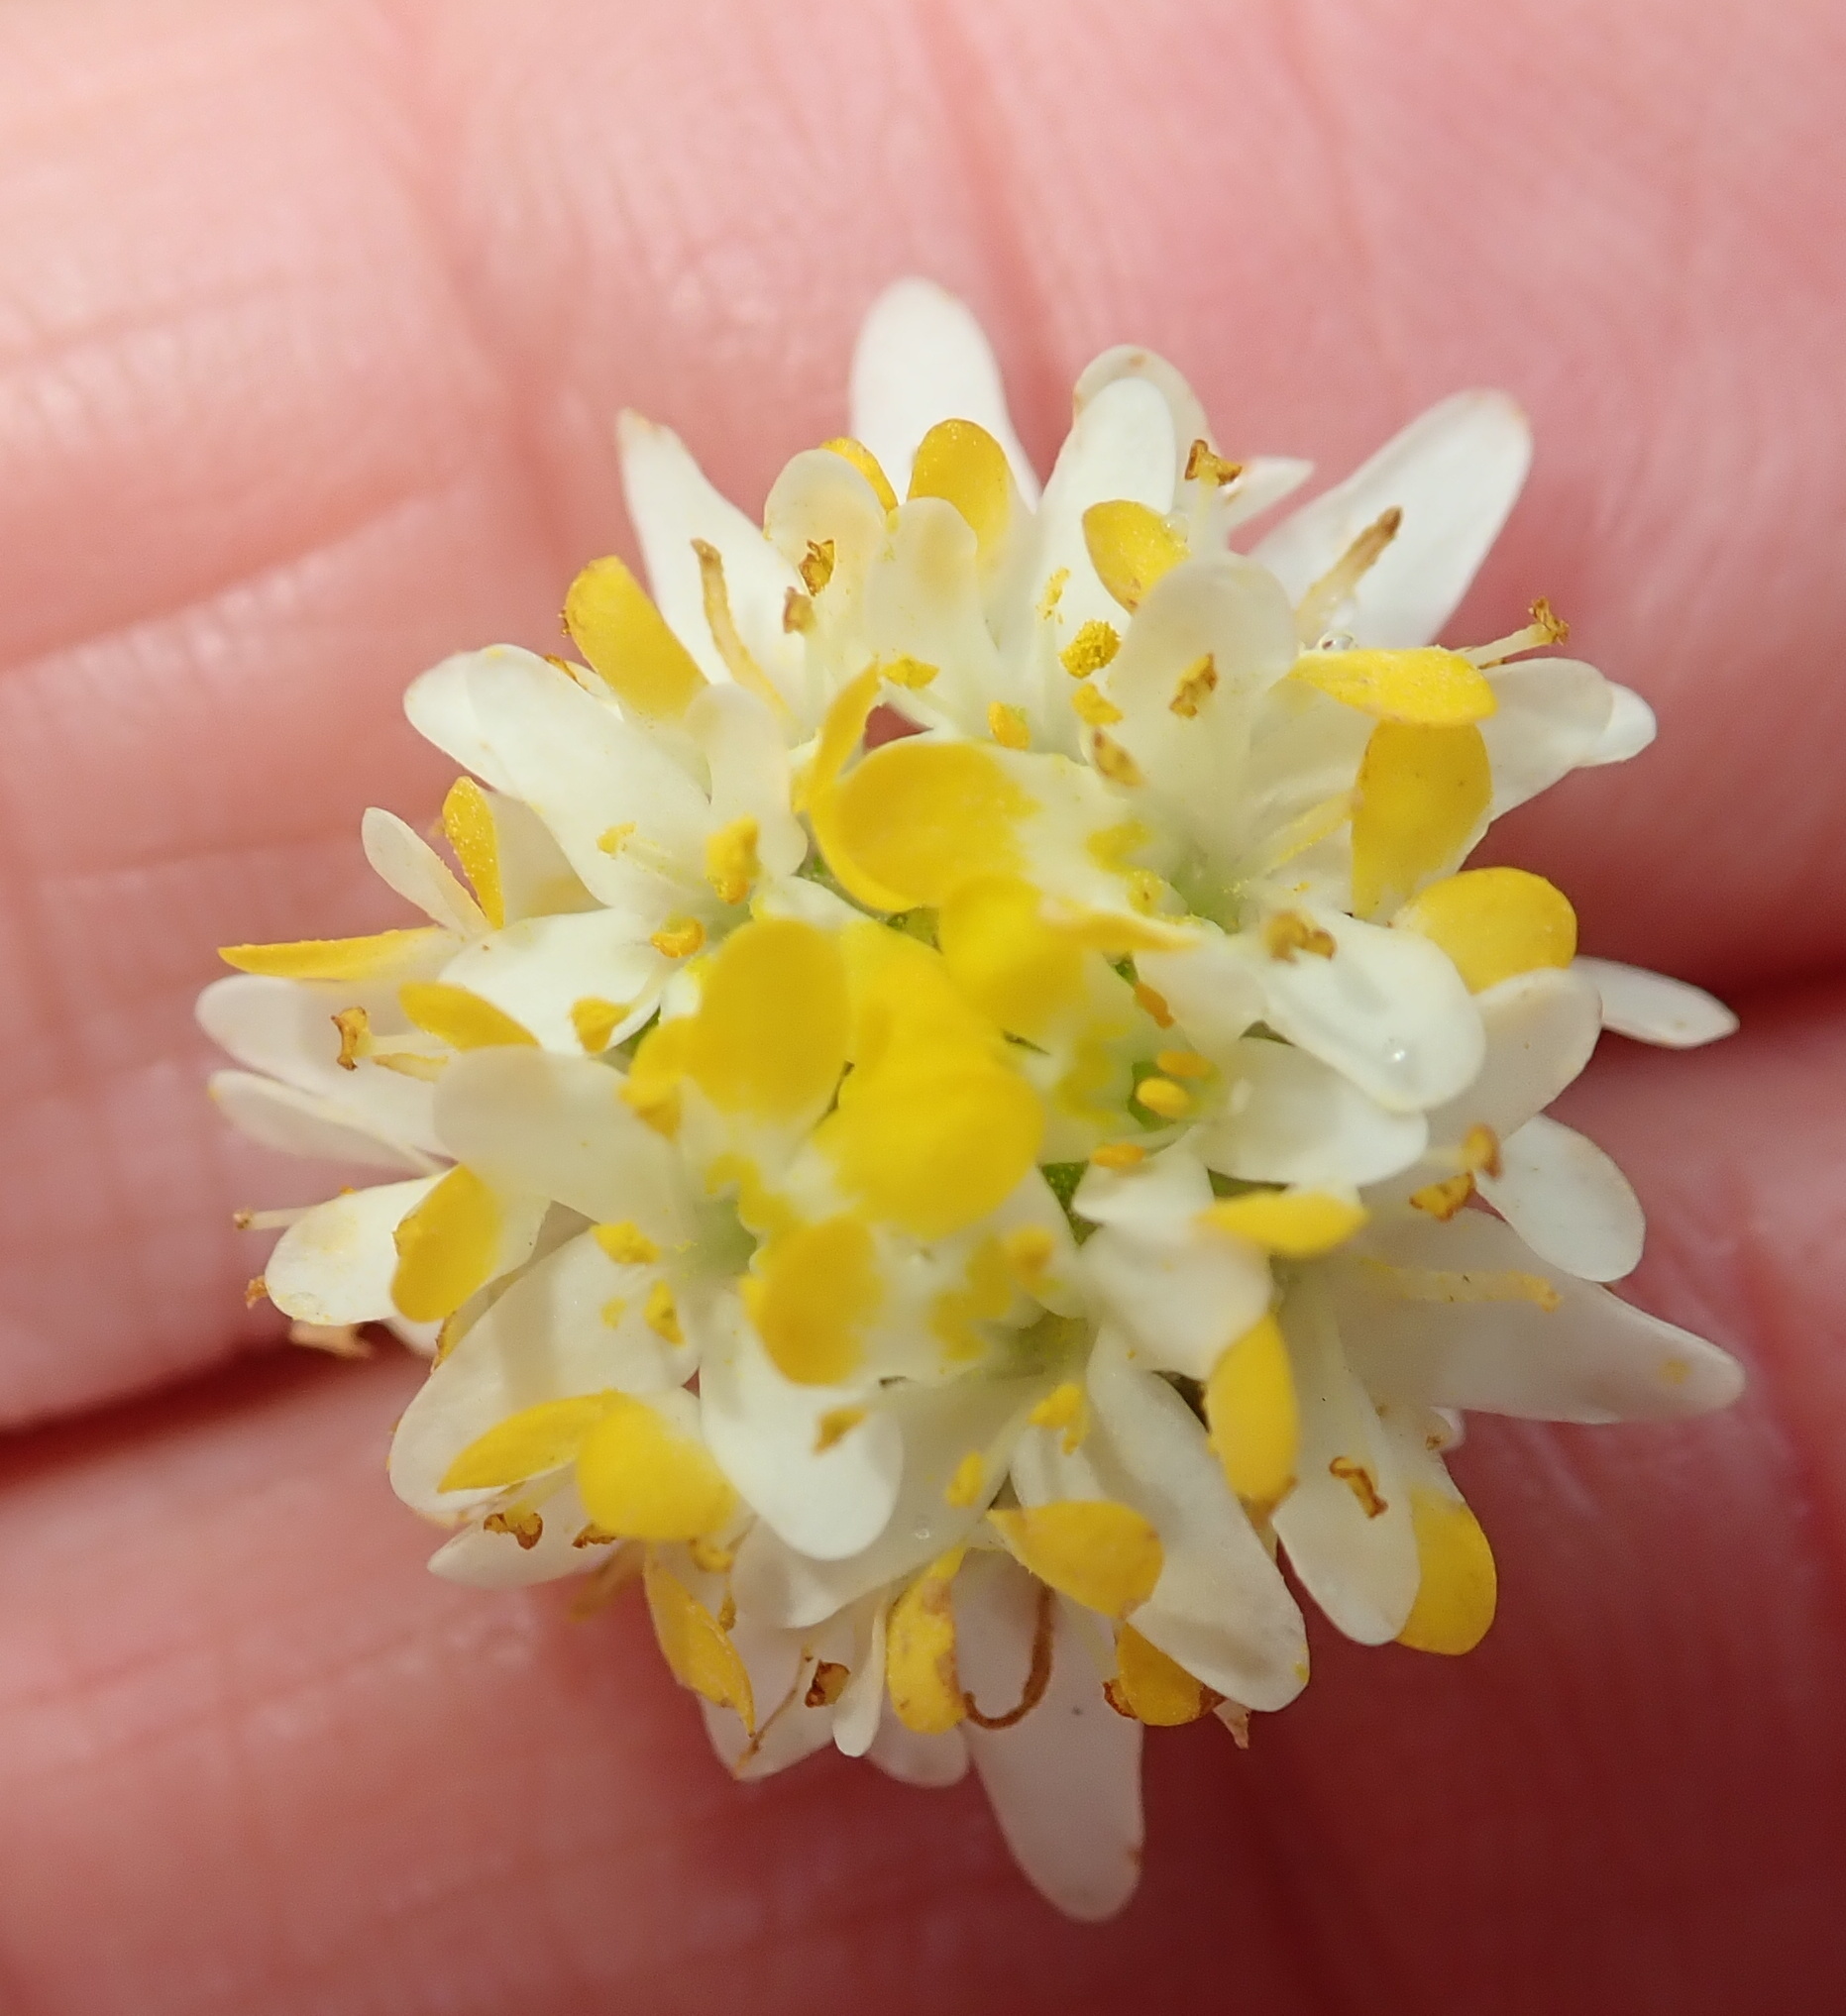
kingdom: Plantae
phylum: Tracheophyta
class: Magnoliopsida
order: Lamiales
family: Scrophulariaceae
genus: Polycarena
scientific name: Polycarena aurea
